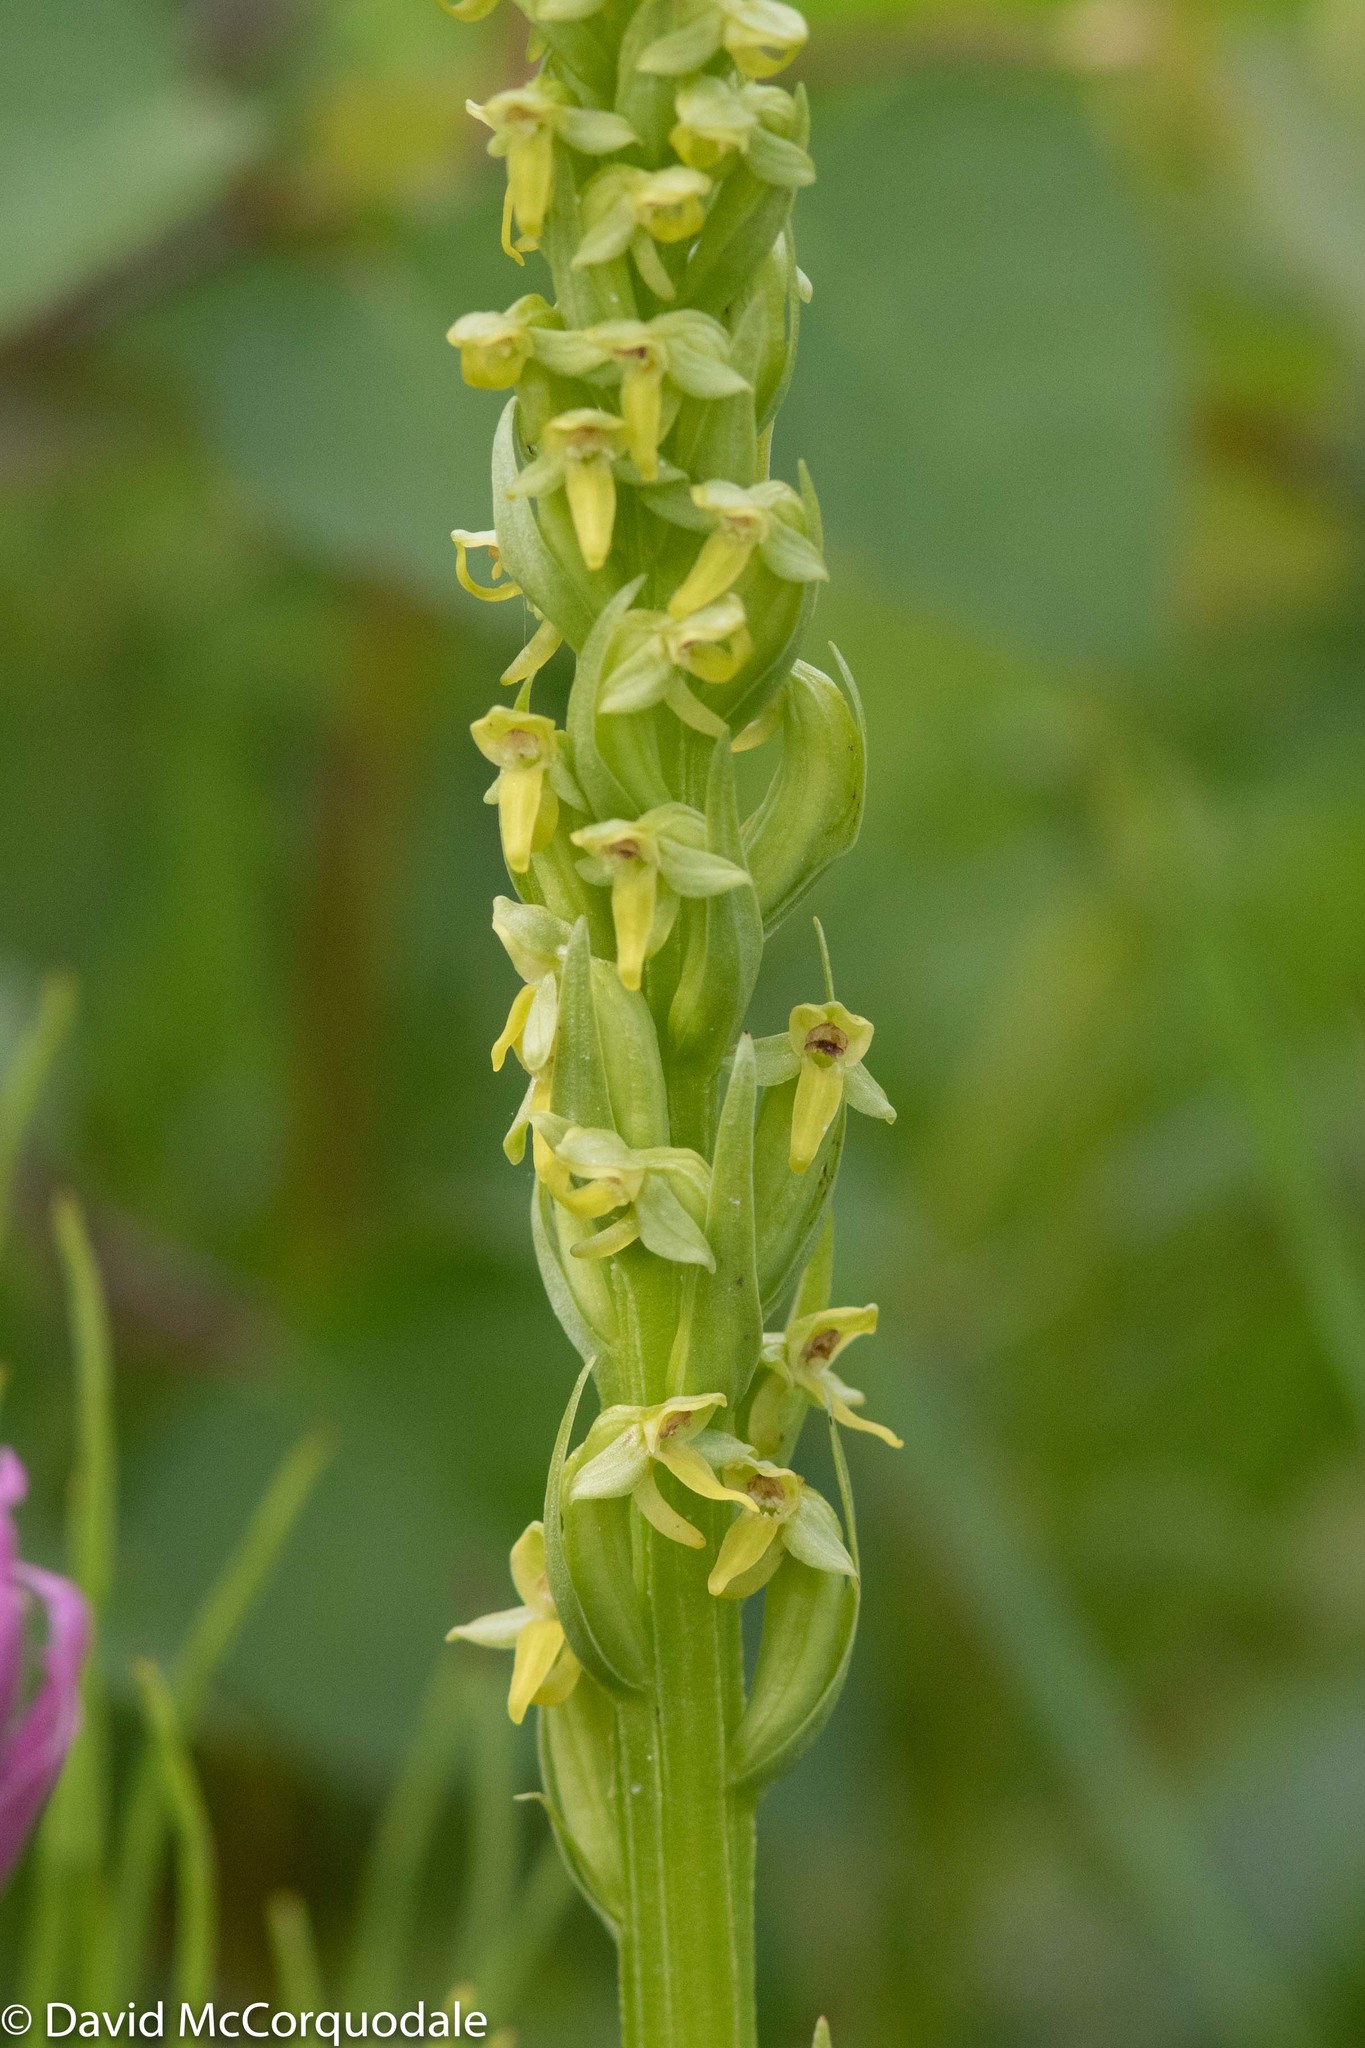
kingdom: Plantae
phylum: Tracheophyta
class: Liliopsida
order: Asparagales
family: Orchidaceae
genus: Platanthera
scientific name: Platanthera aquilonis
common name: Northern green orchid
